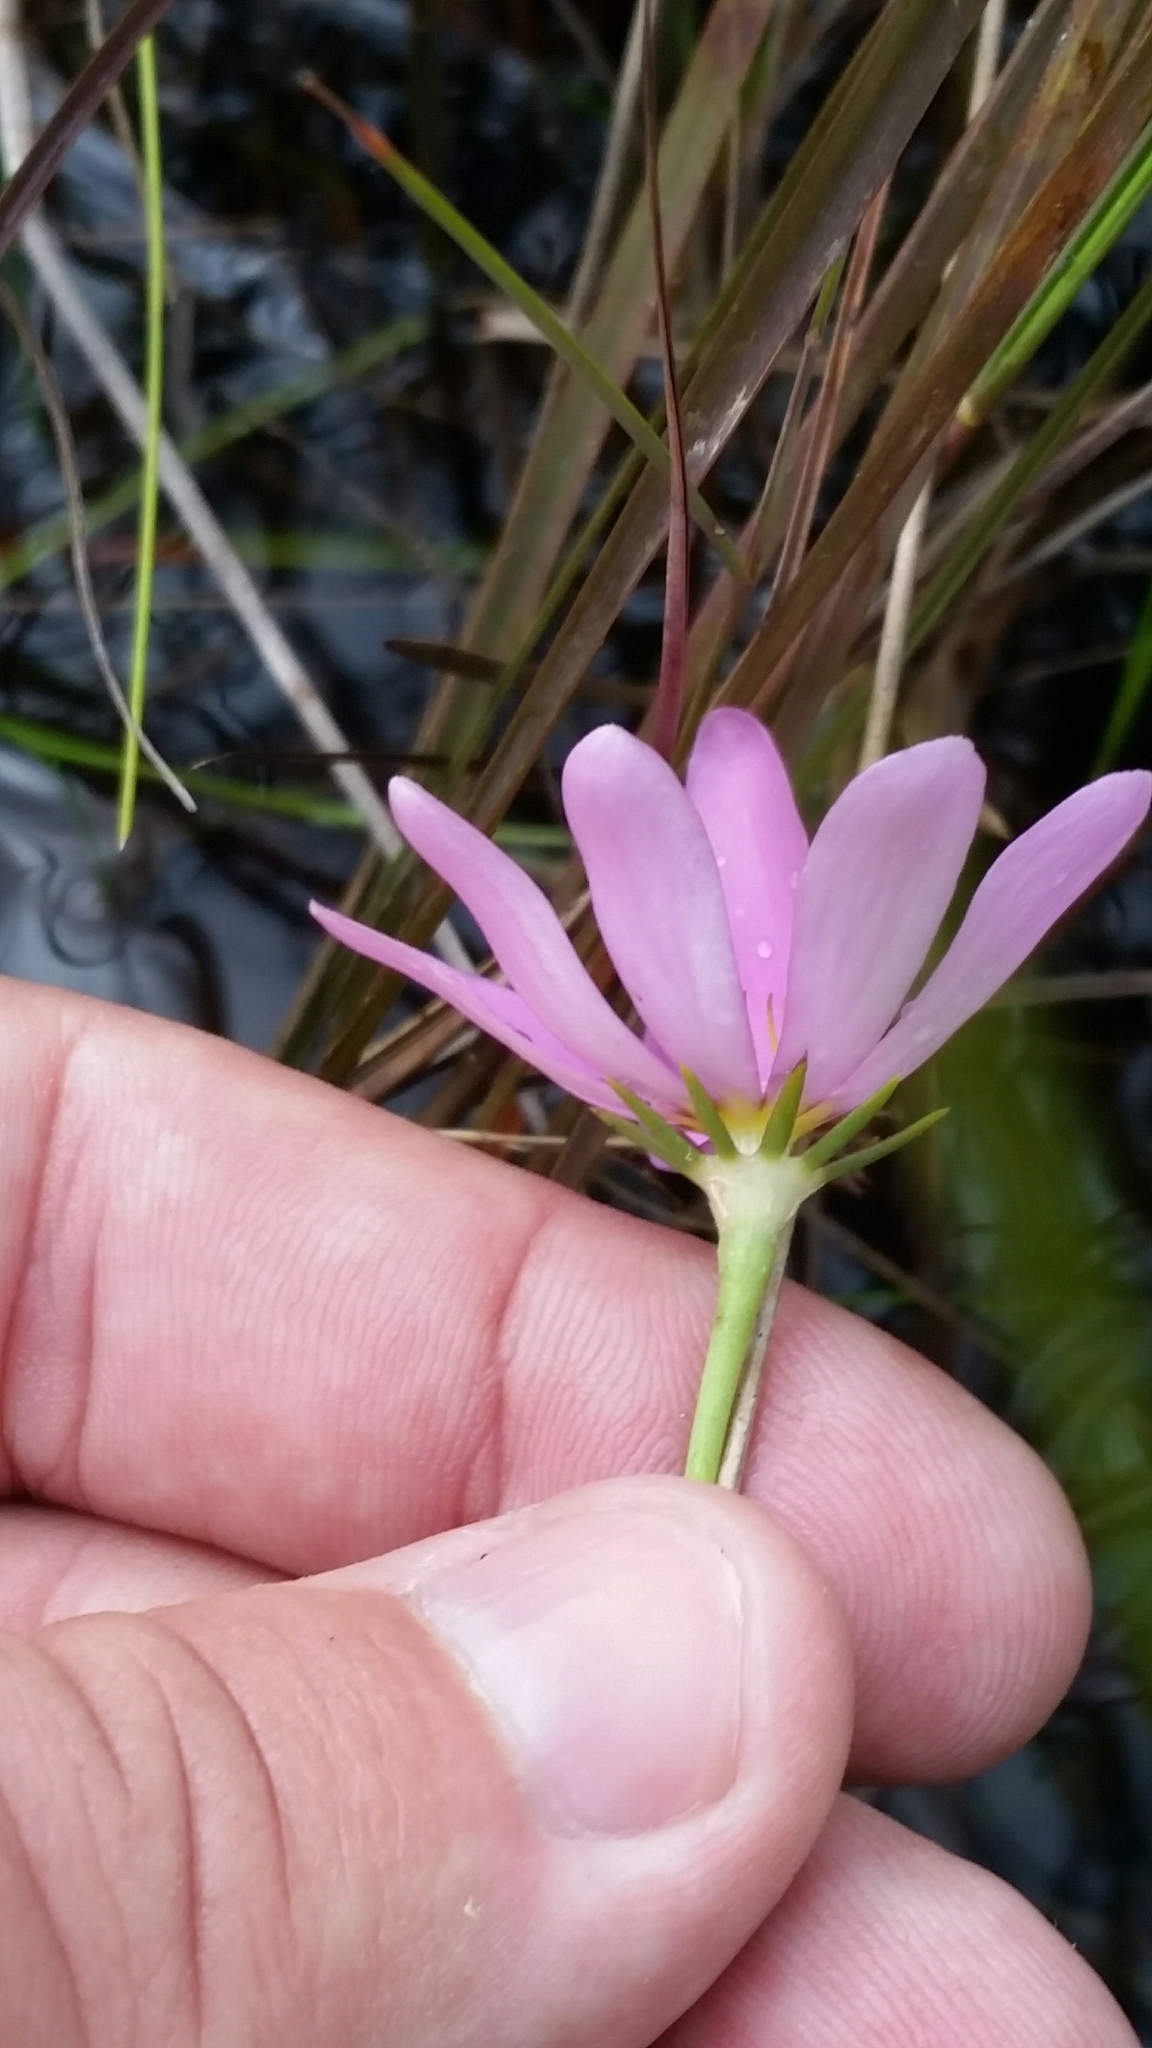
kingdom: Plantae
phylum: Tracheophyta
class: Magnoliopsida
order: Gentianales
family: Gentianaceae
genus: Sabatia
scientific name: Sabatia decandra
